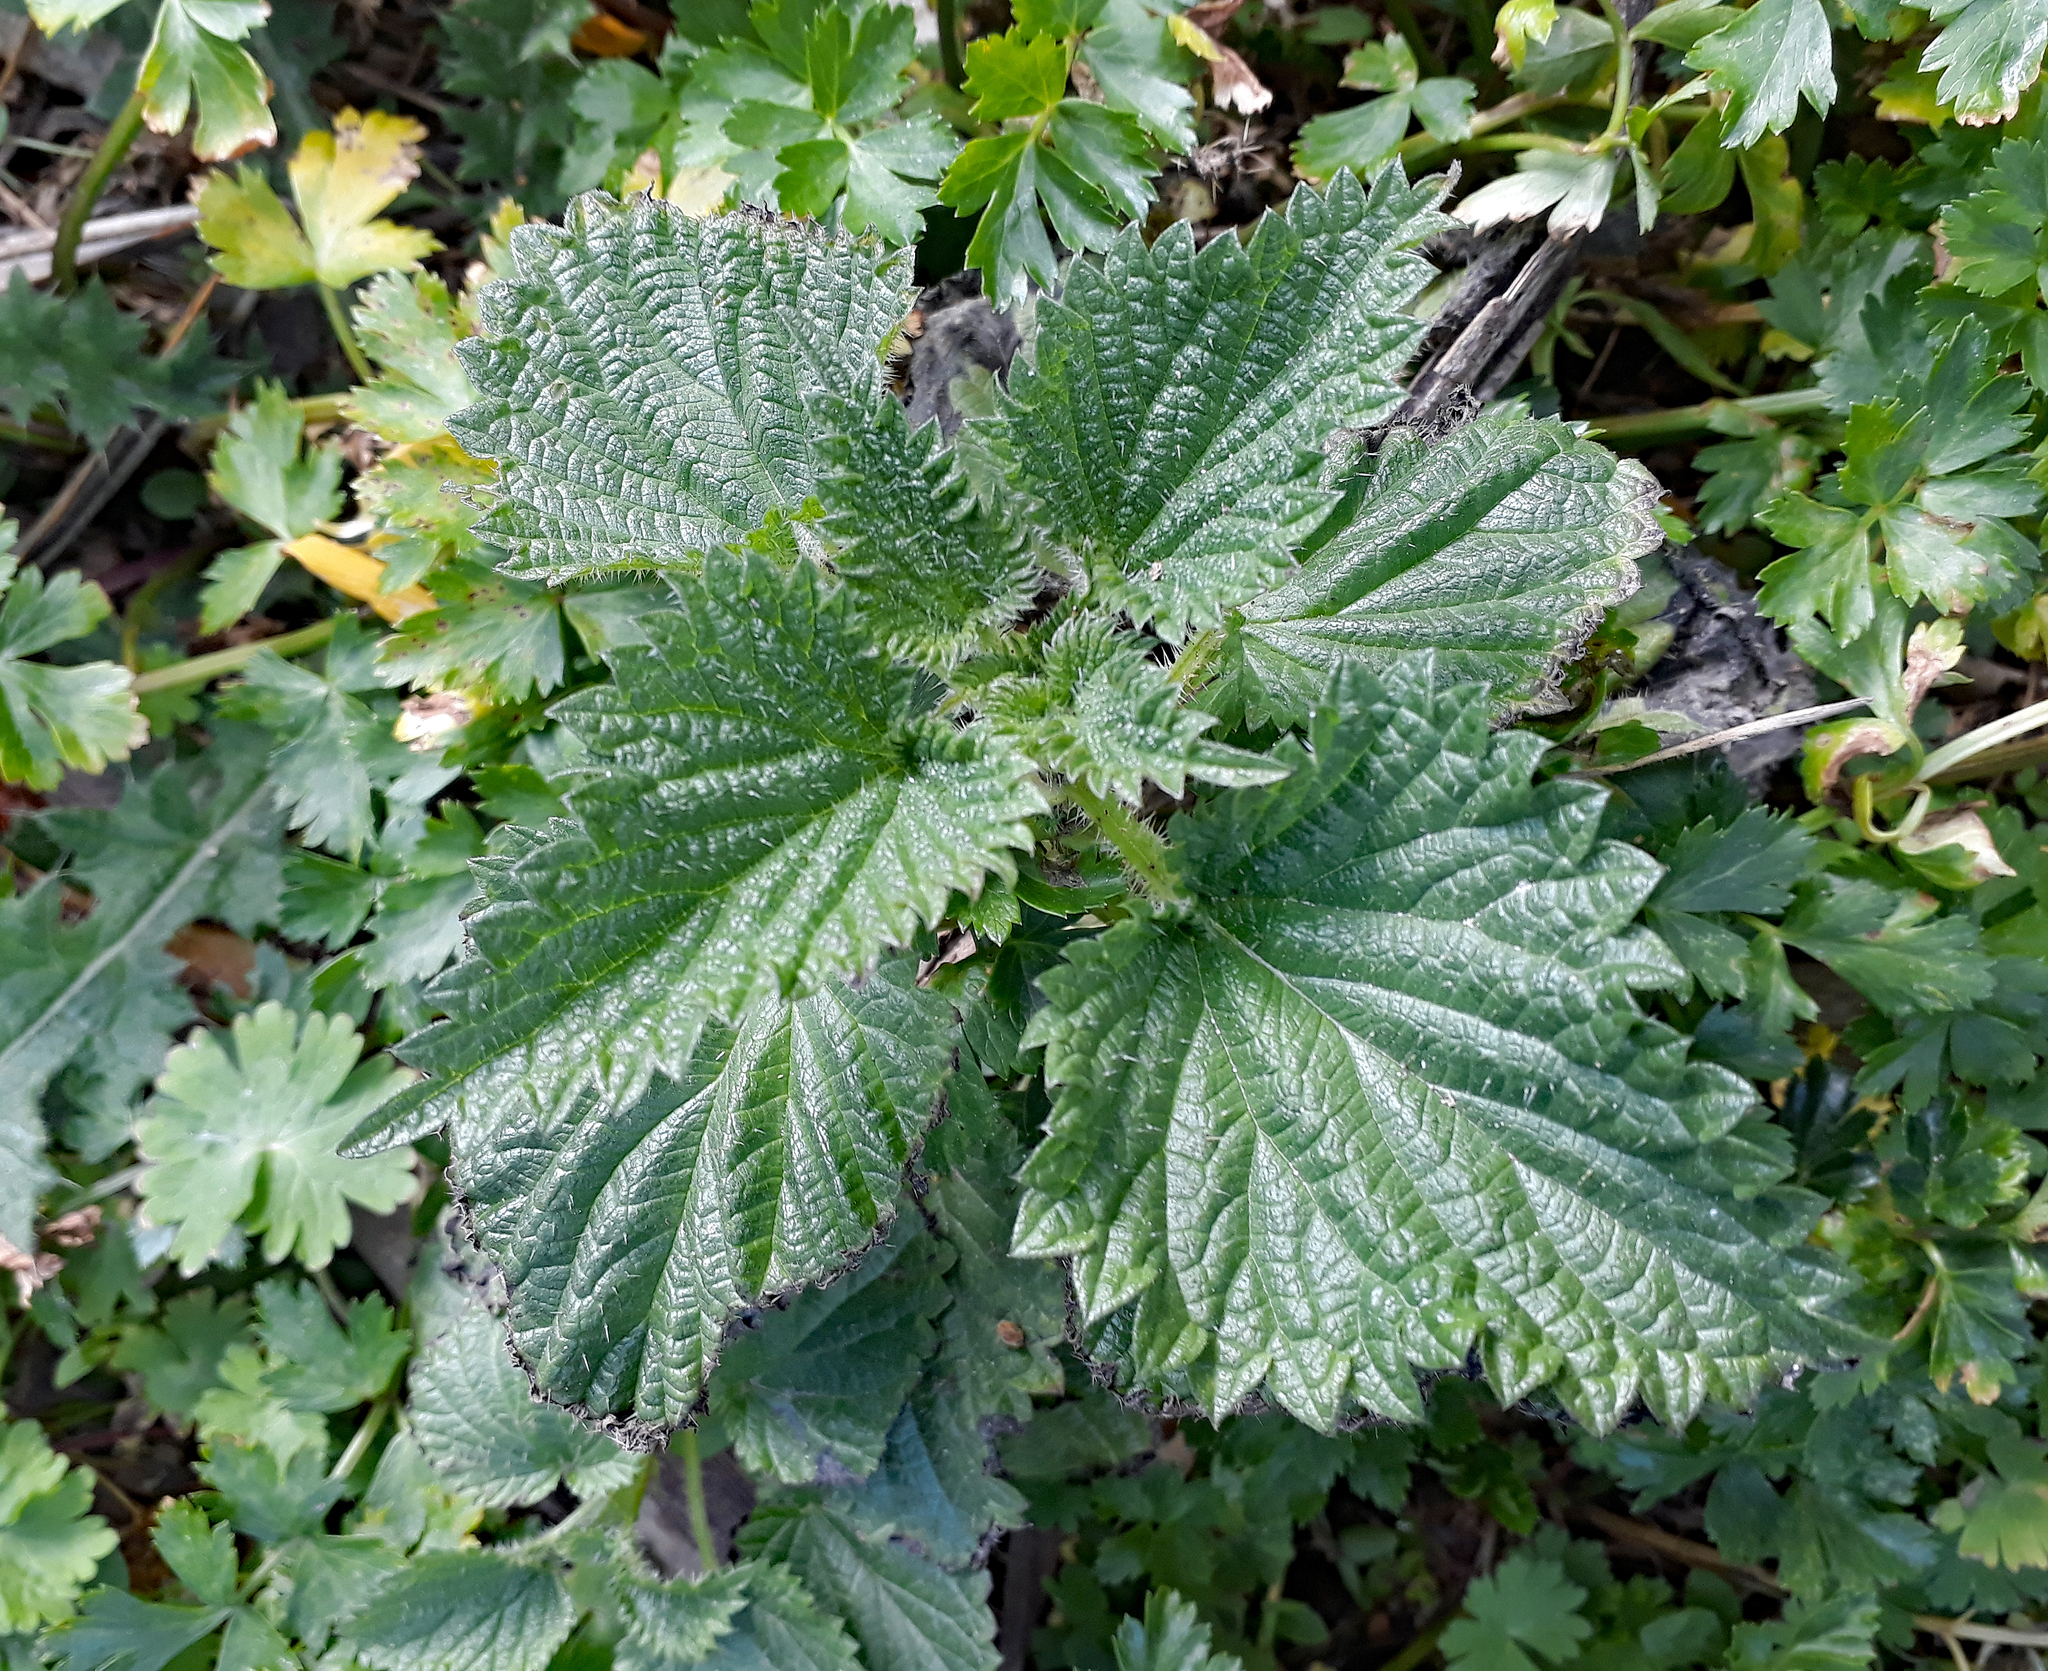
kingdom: Plantae
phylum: Tracheophyta
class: Magnoliopsida
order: Rosales
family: Urticaceae
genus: Urtica
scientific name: Urtica australis
